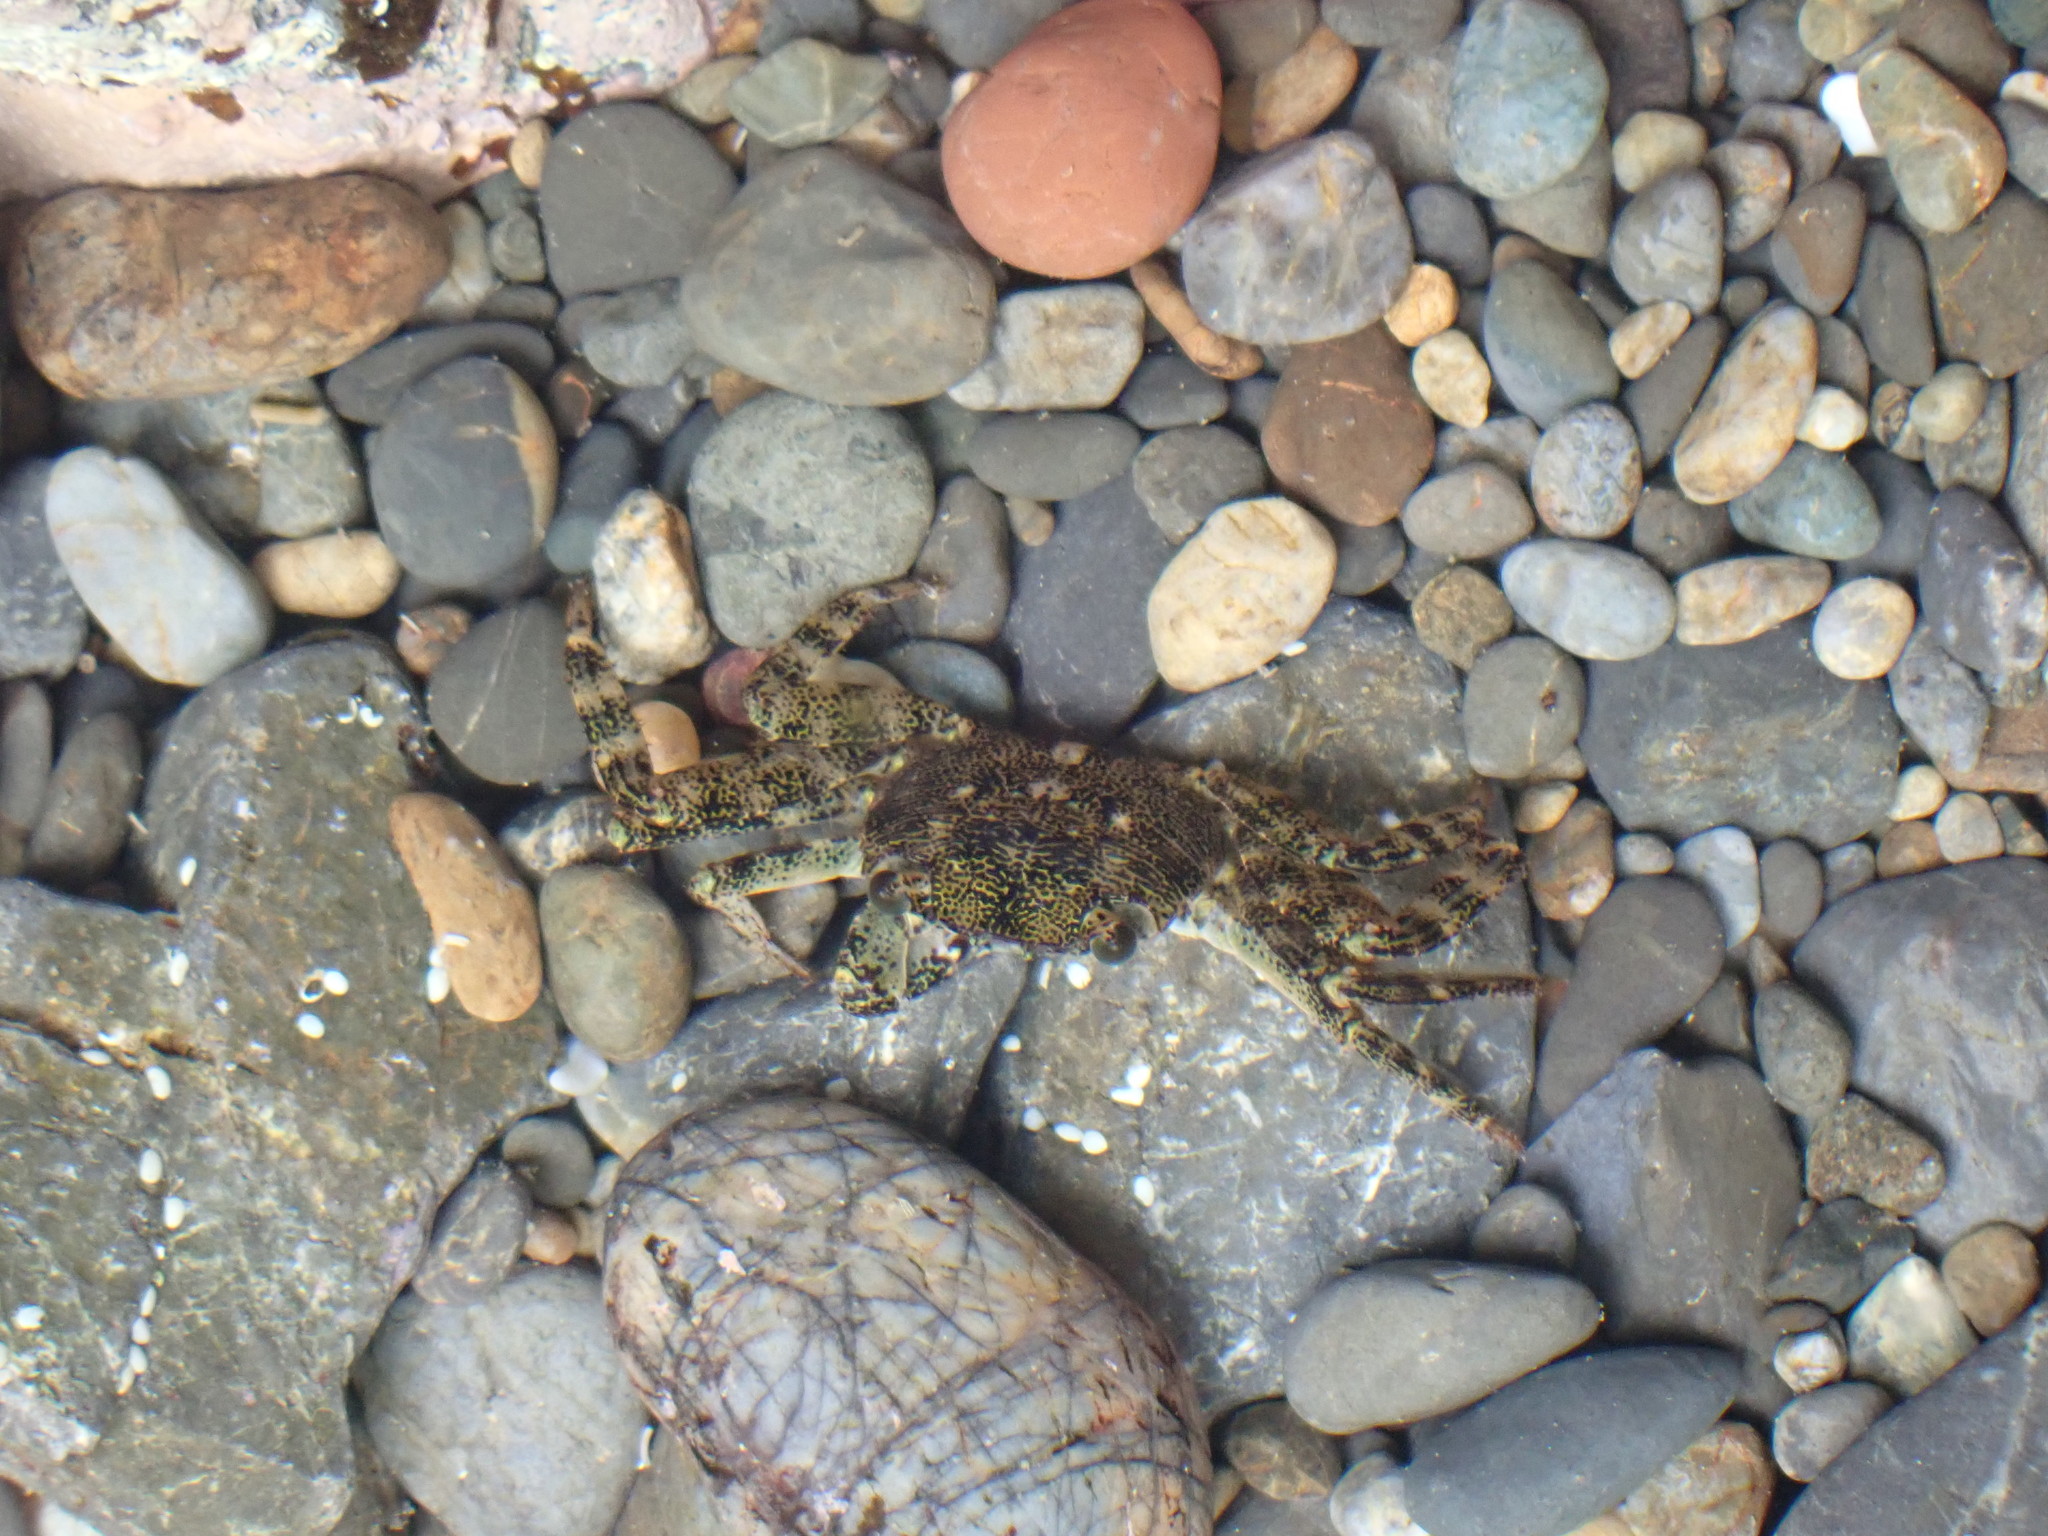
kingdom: Animalia
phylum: Arthropoda
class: Malacostraca
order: Decapoda
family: Grapsidae
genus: Leptograpsus
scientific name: Leptograpsus variegatus
